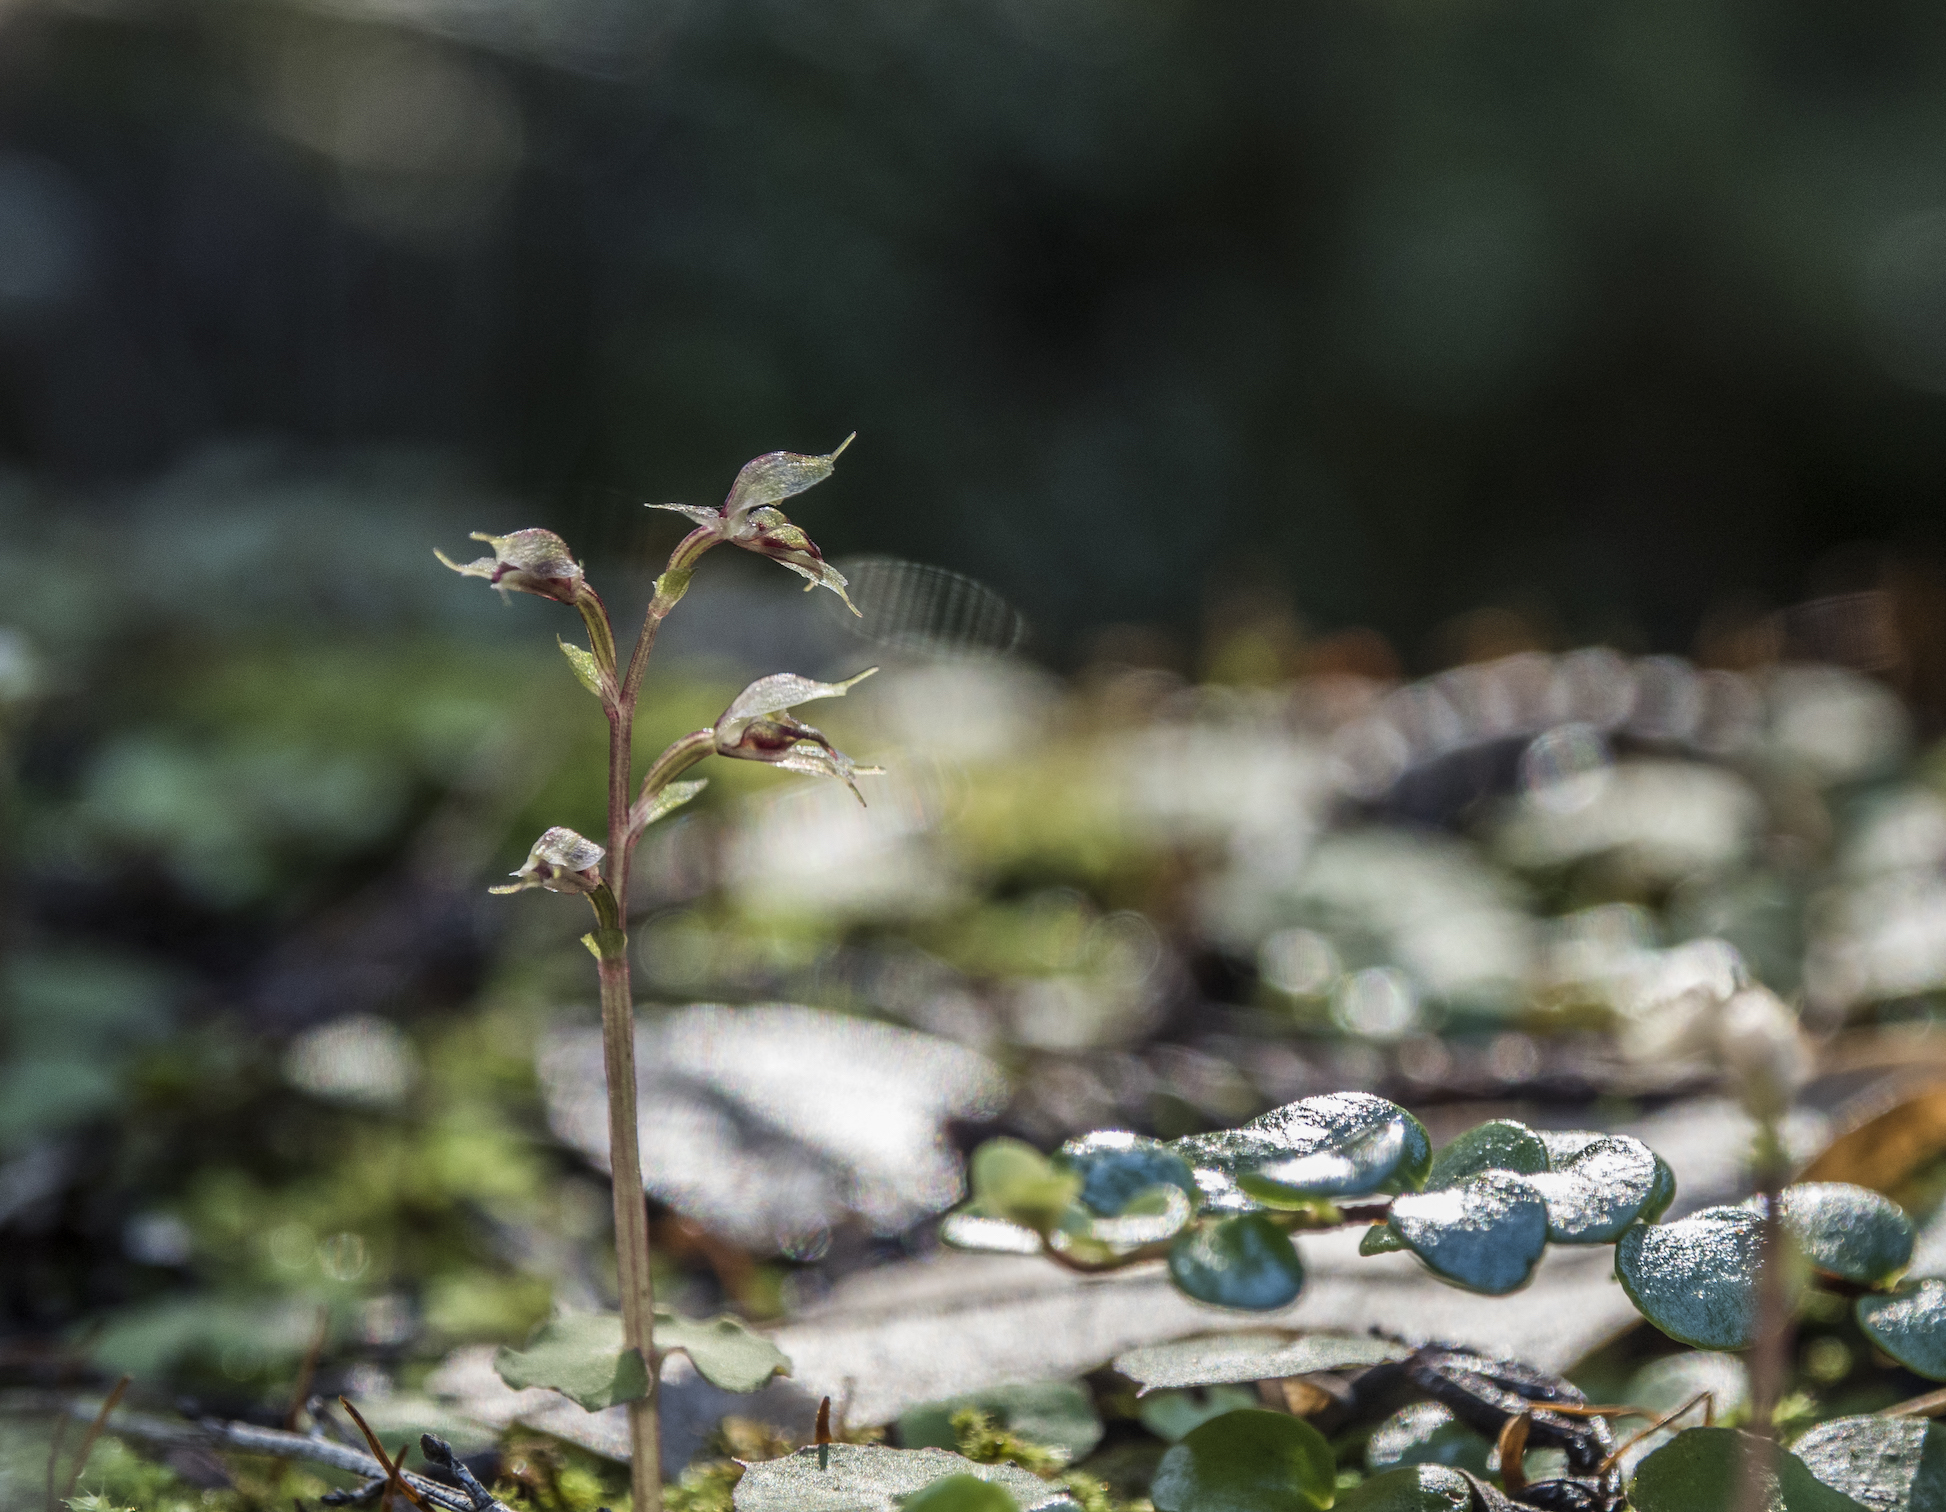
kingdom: Plantae
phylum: Tracheophyta
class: Liliopsida
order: Asparagales
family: Orchidaceae
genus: Acianthus
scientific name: Acianthus sinclairii
